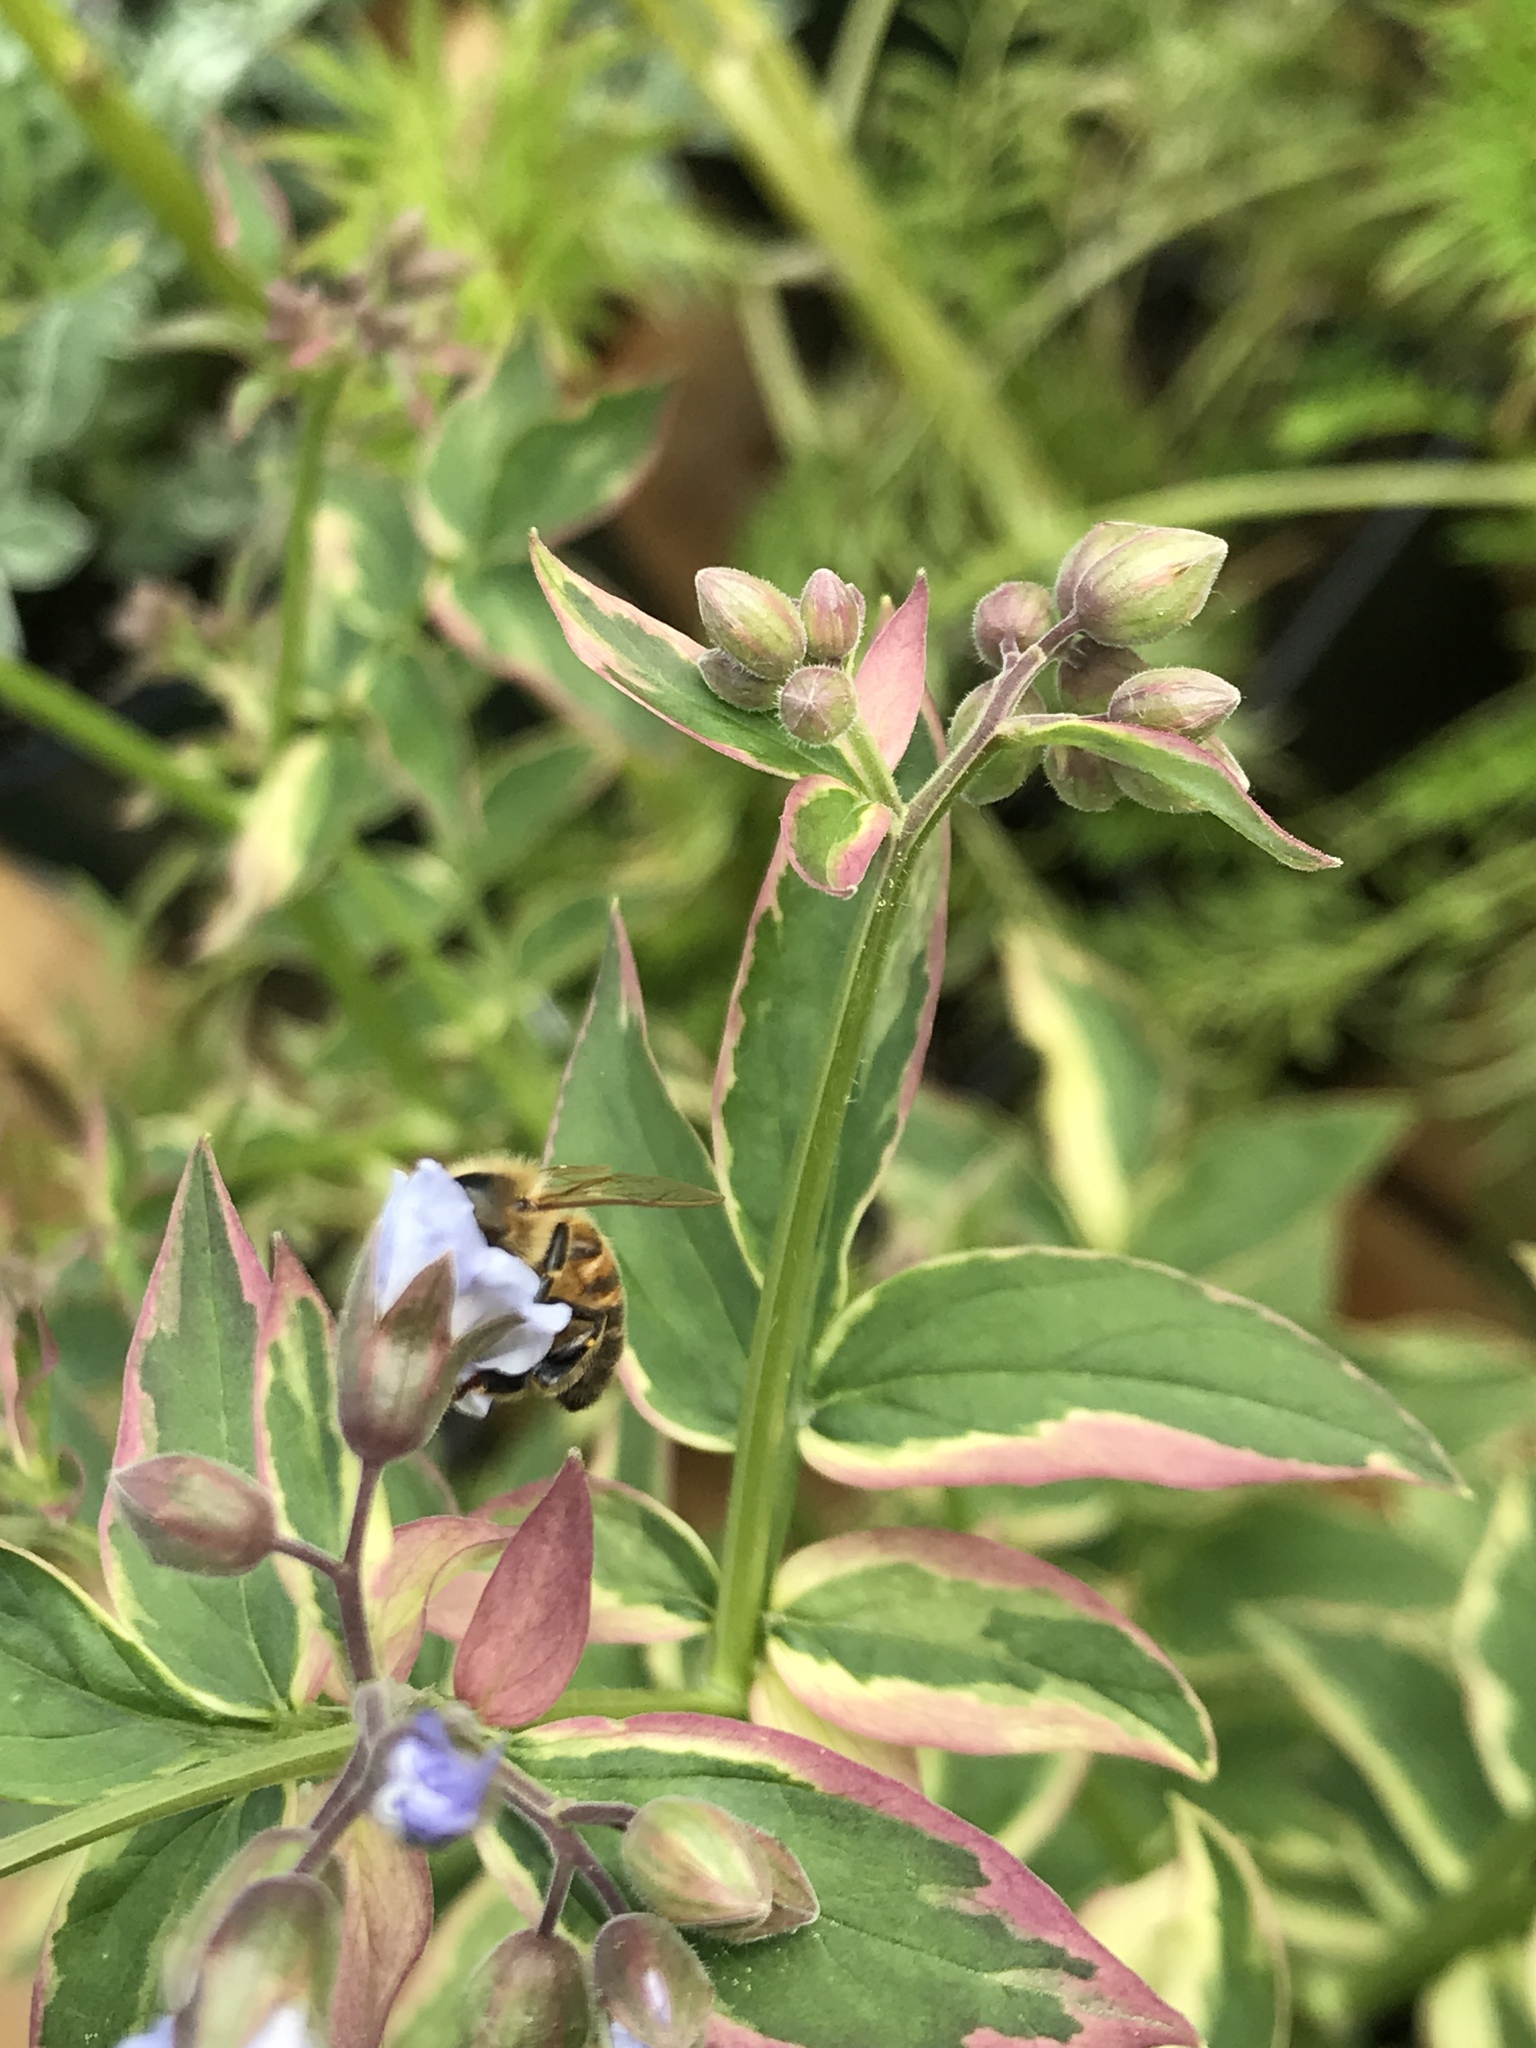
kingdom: Animalia
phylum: Arthropoda
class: Insecta
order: Hymenoptera
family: Apidae
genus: Apis
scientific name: Apis mellifera
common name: Honey bee
